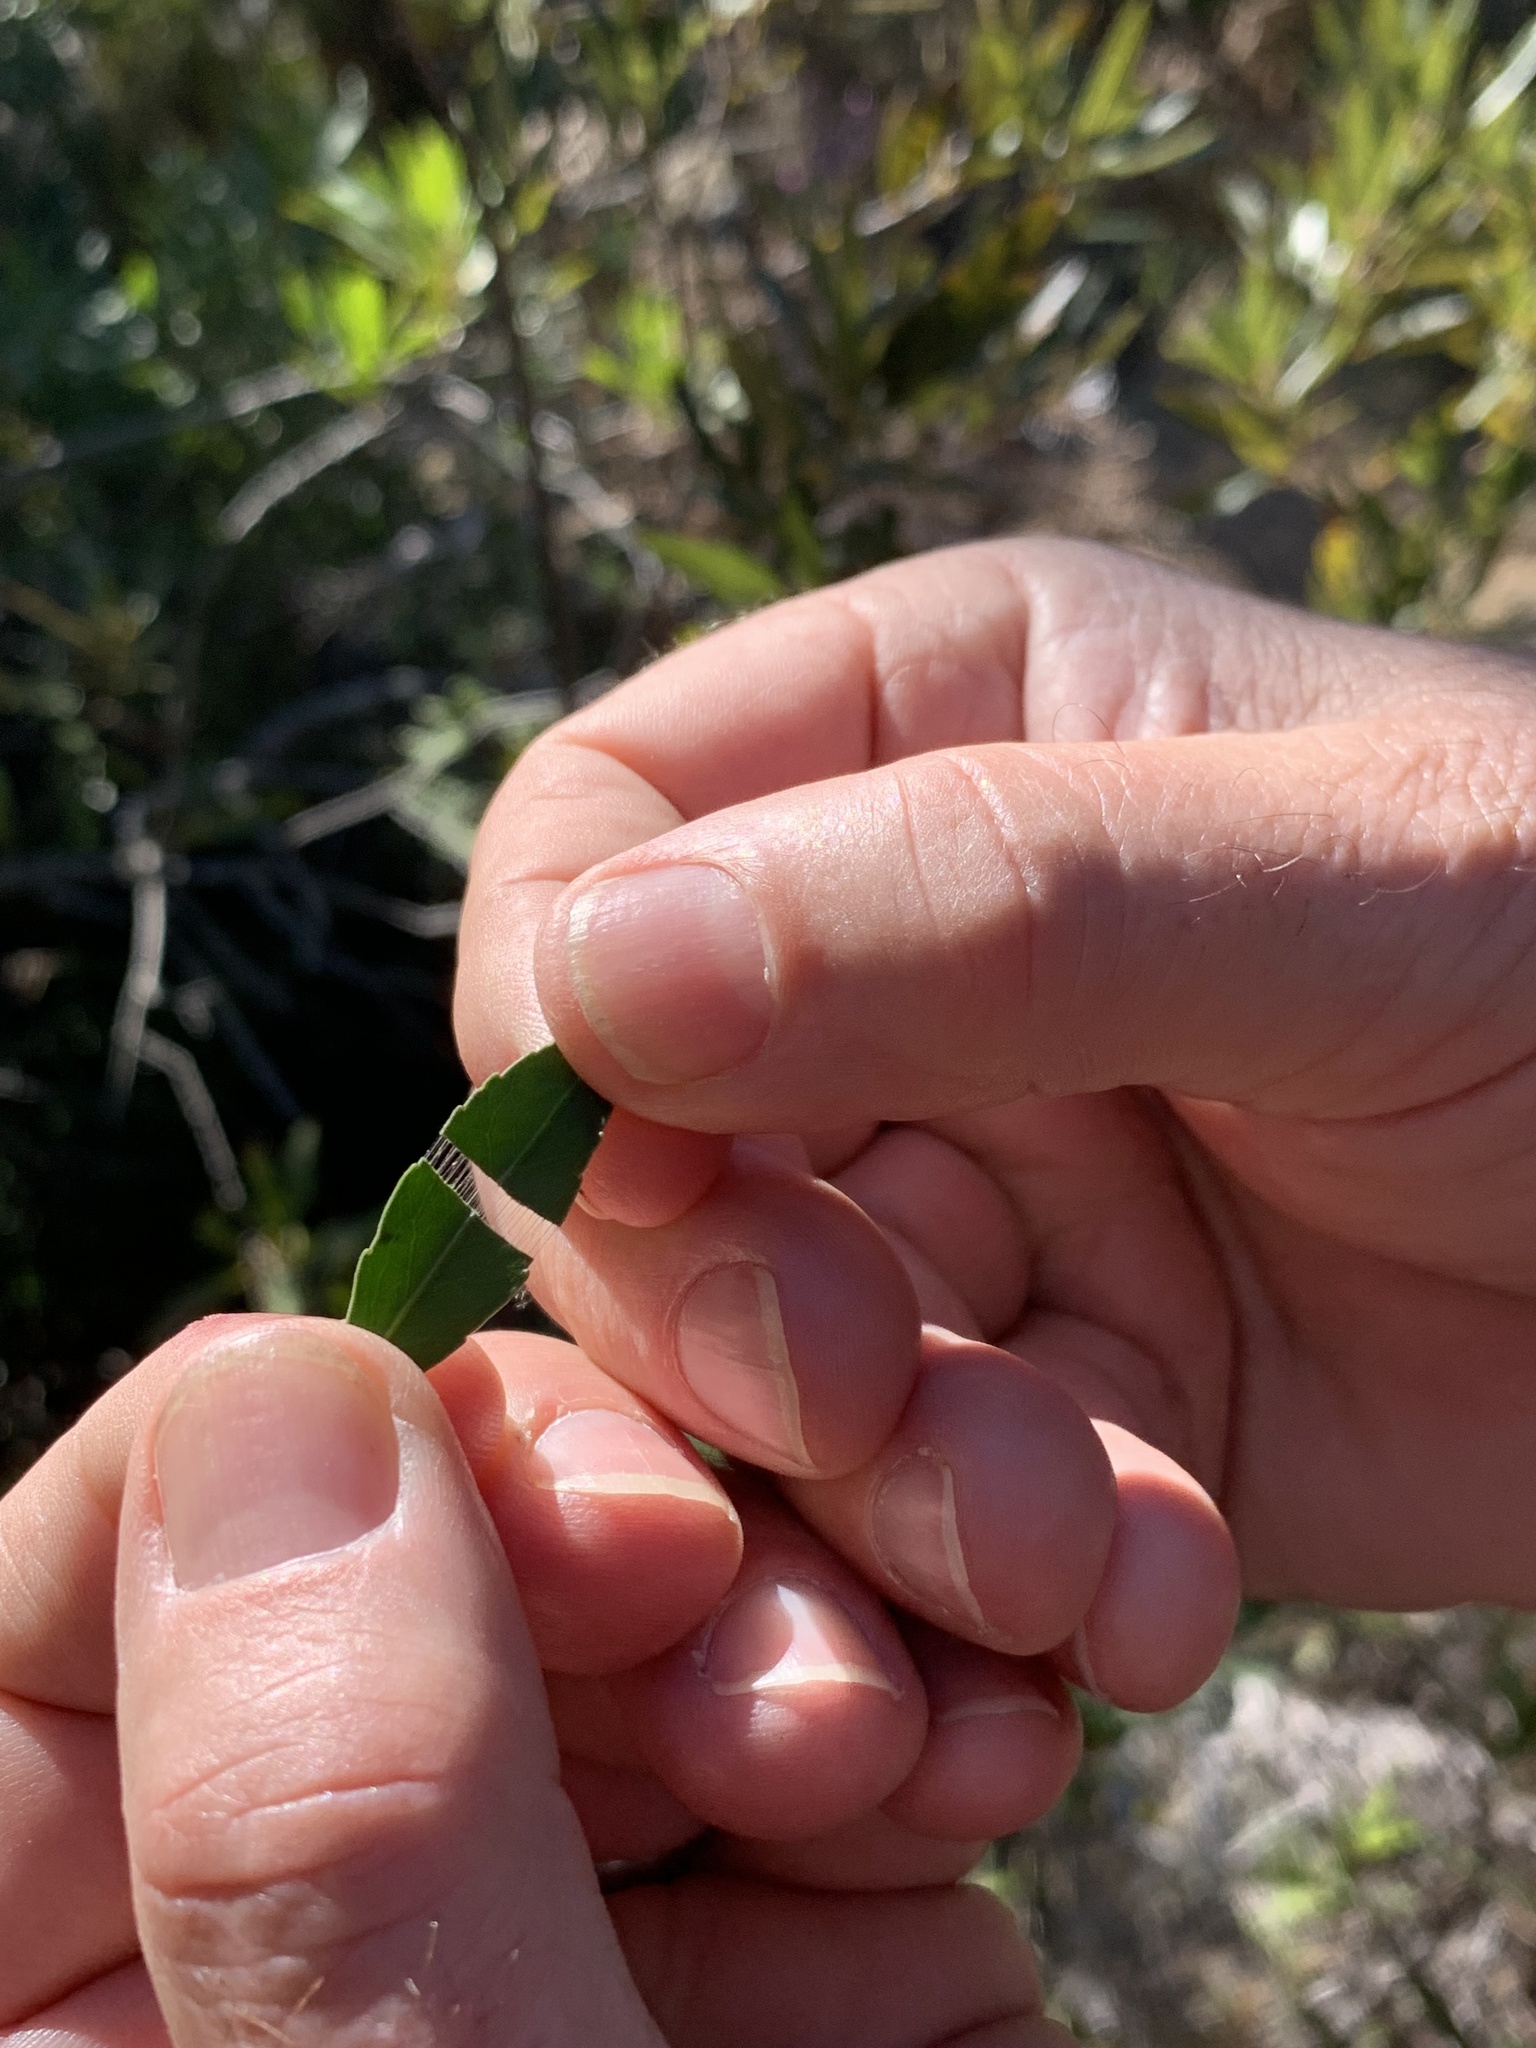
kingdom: Plantae
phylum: Tracheophyta
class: Magnoliopsida
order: Celastrales
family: Celastraceae
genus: Gymnosporia
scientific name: Gymnosporia acuminata
